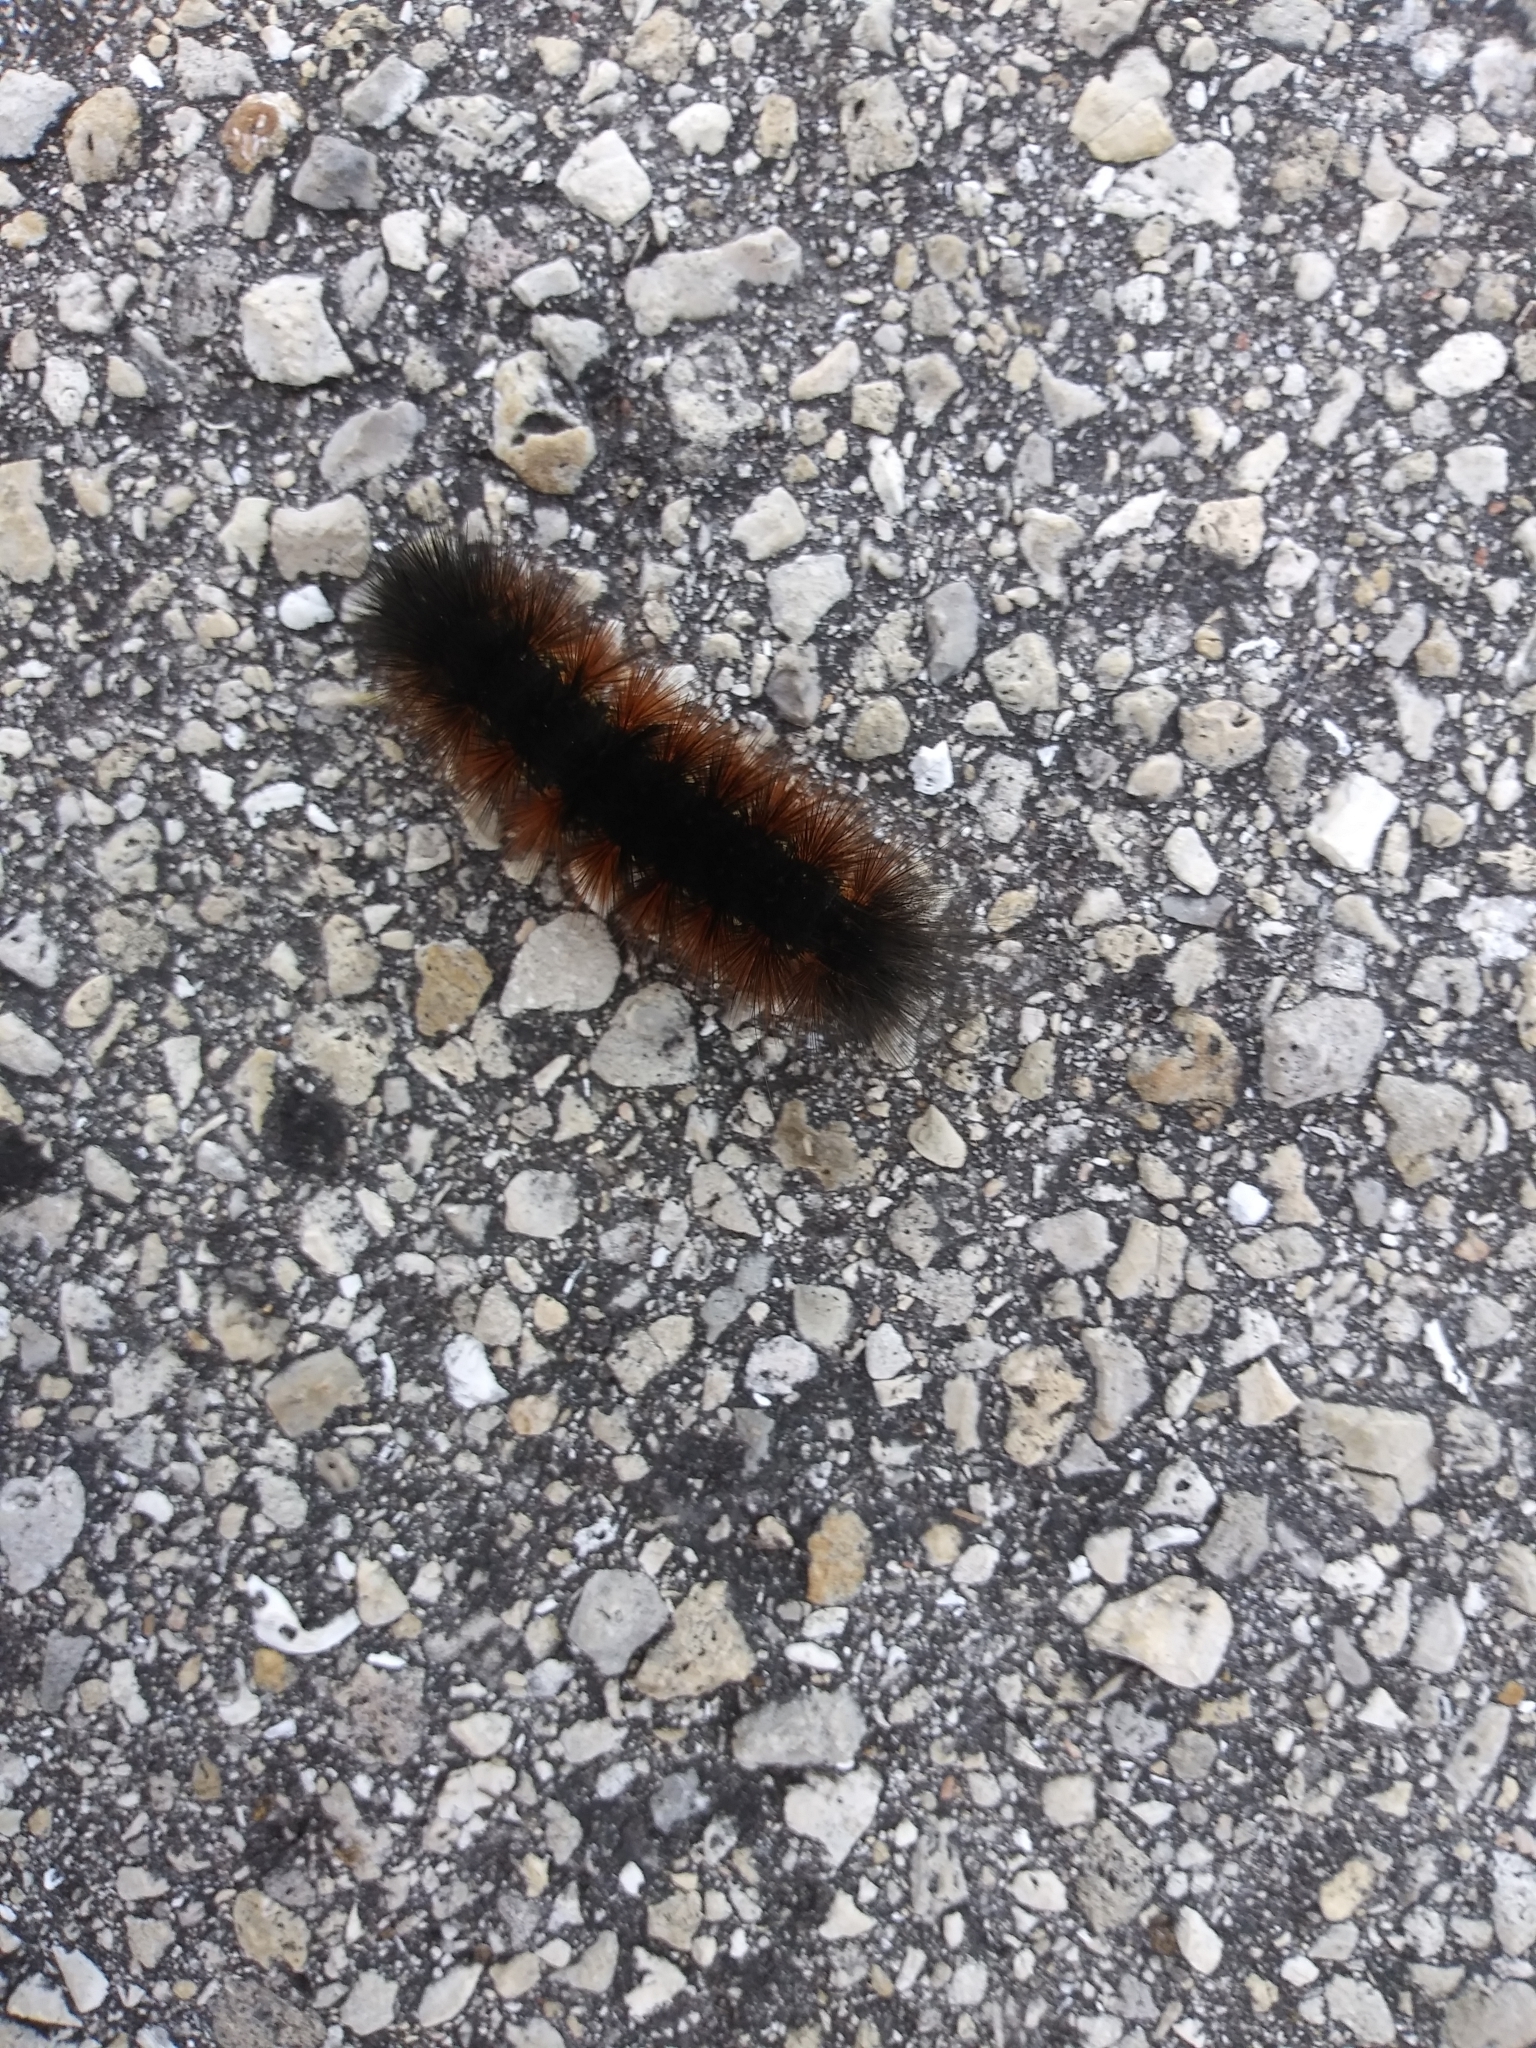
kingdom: Animalia
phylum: Arthropoda
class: Insecta
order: Lepidoptera
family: Erebidae
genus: Estigmene
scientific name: Estigmene acrea
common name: Salt marsh moth
